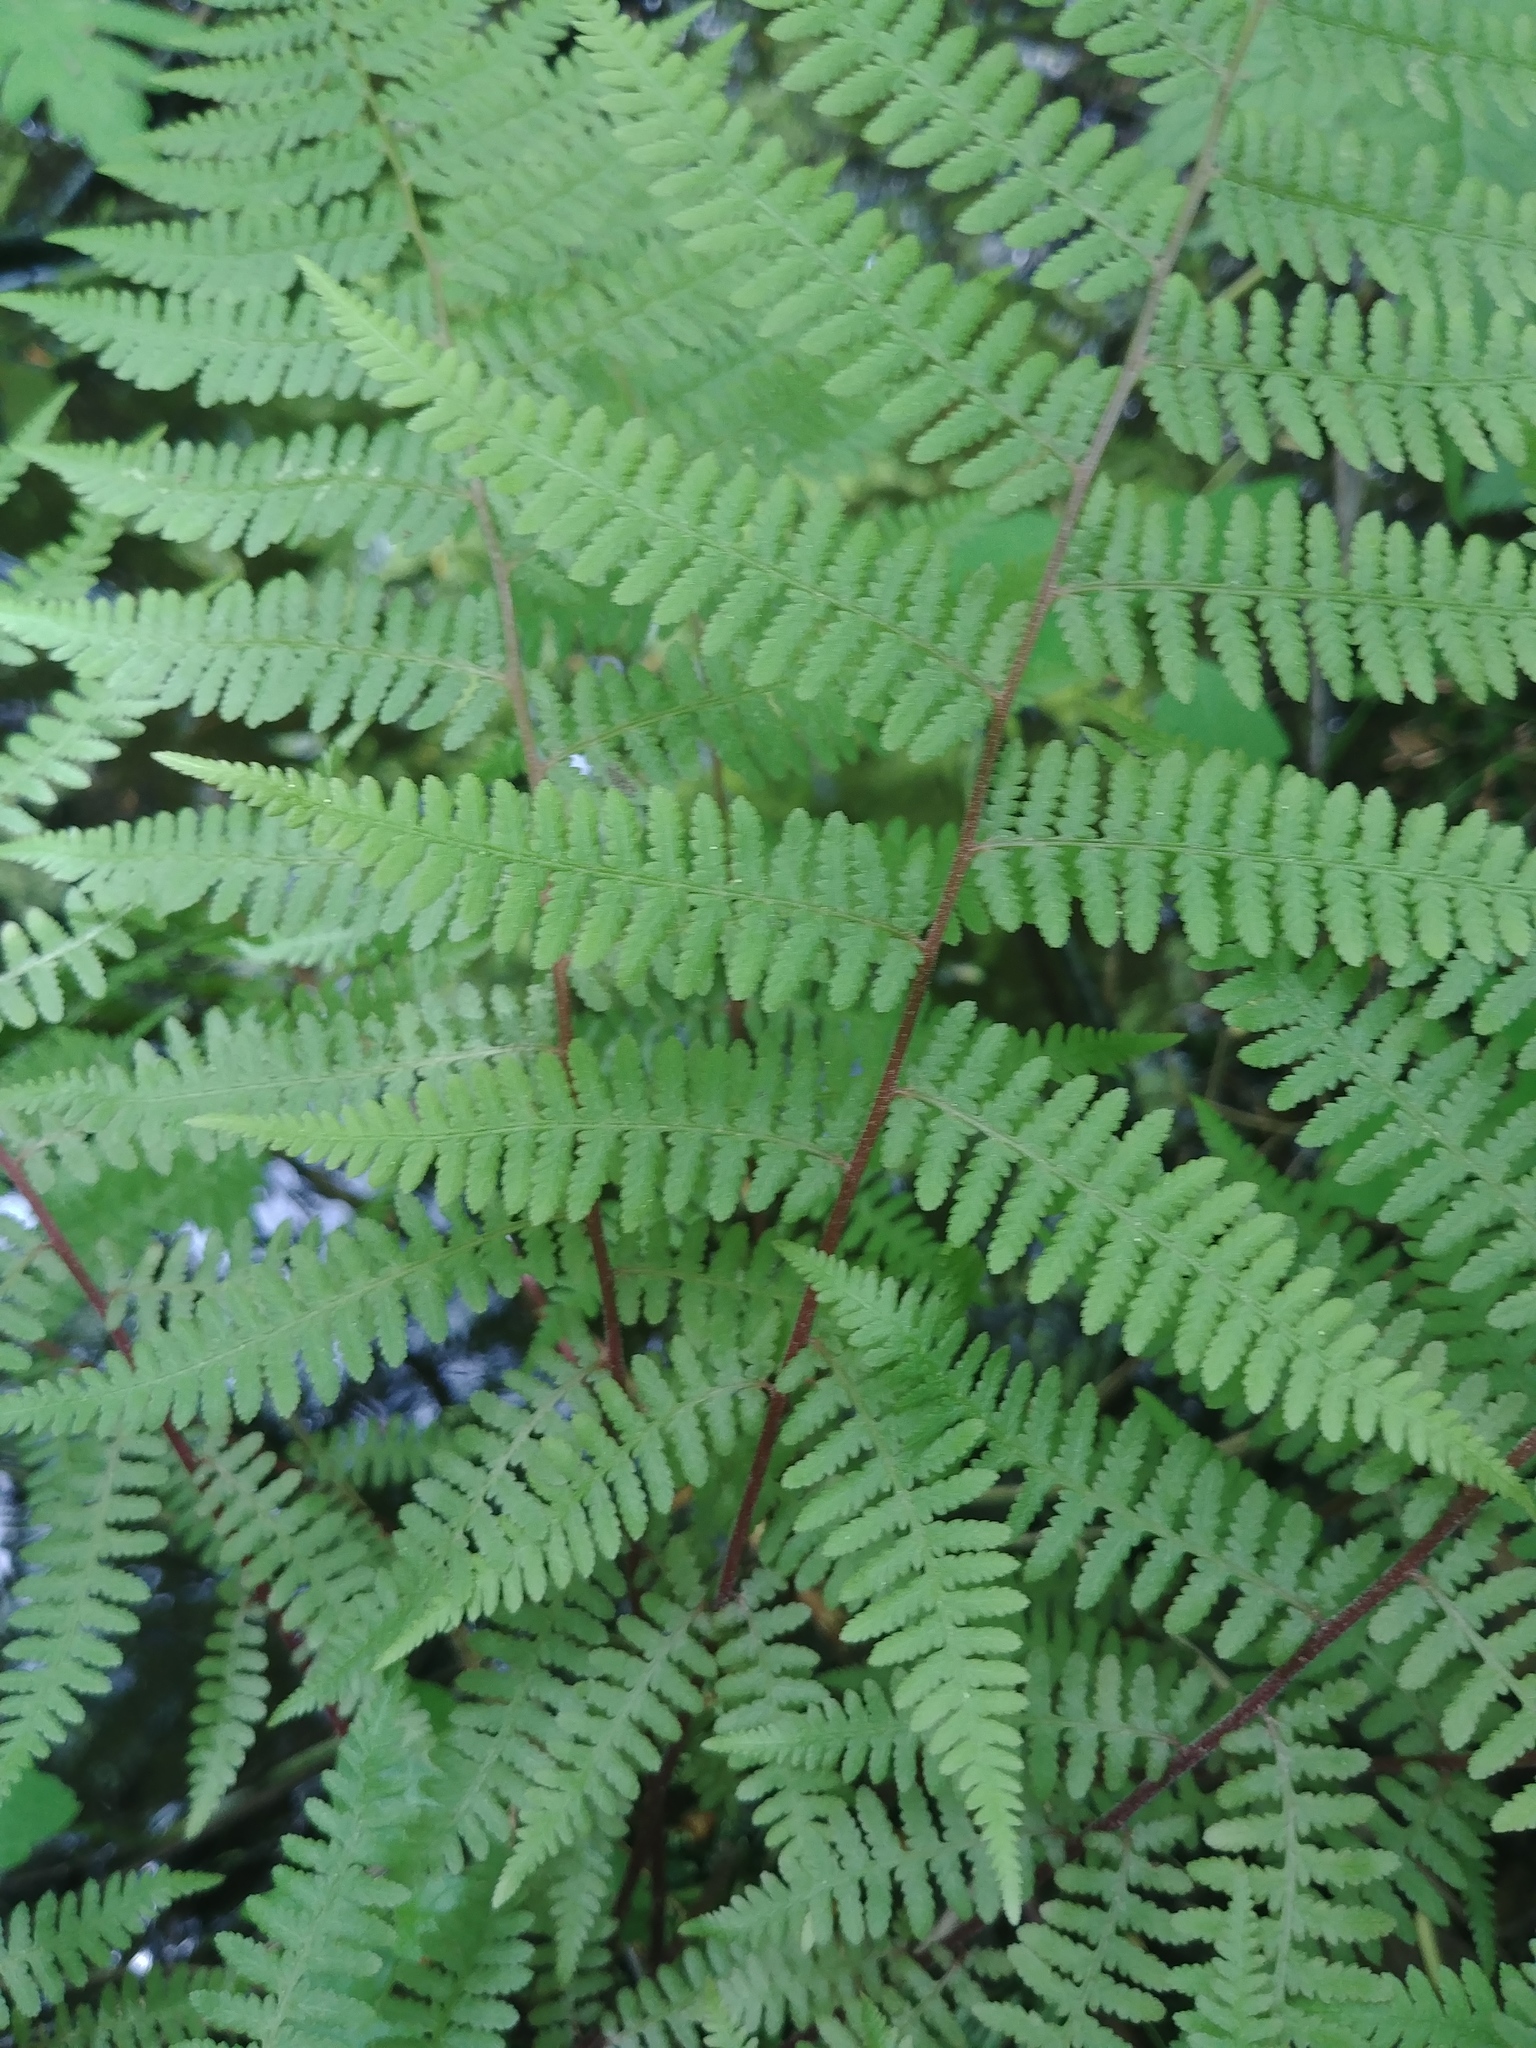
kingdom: Plantae
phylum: Tracheophyta
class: Polypodiopsida
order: Polypodiales
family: Athyriaceae
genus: Athyrium
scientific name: Athyrium angustum
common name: Northern lady fern
